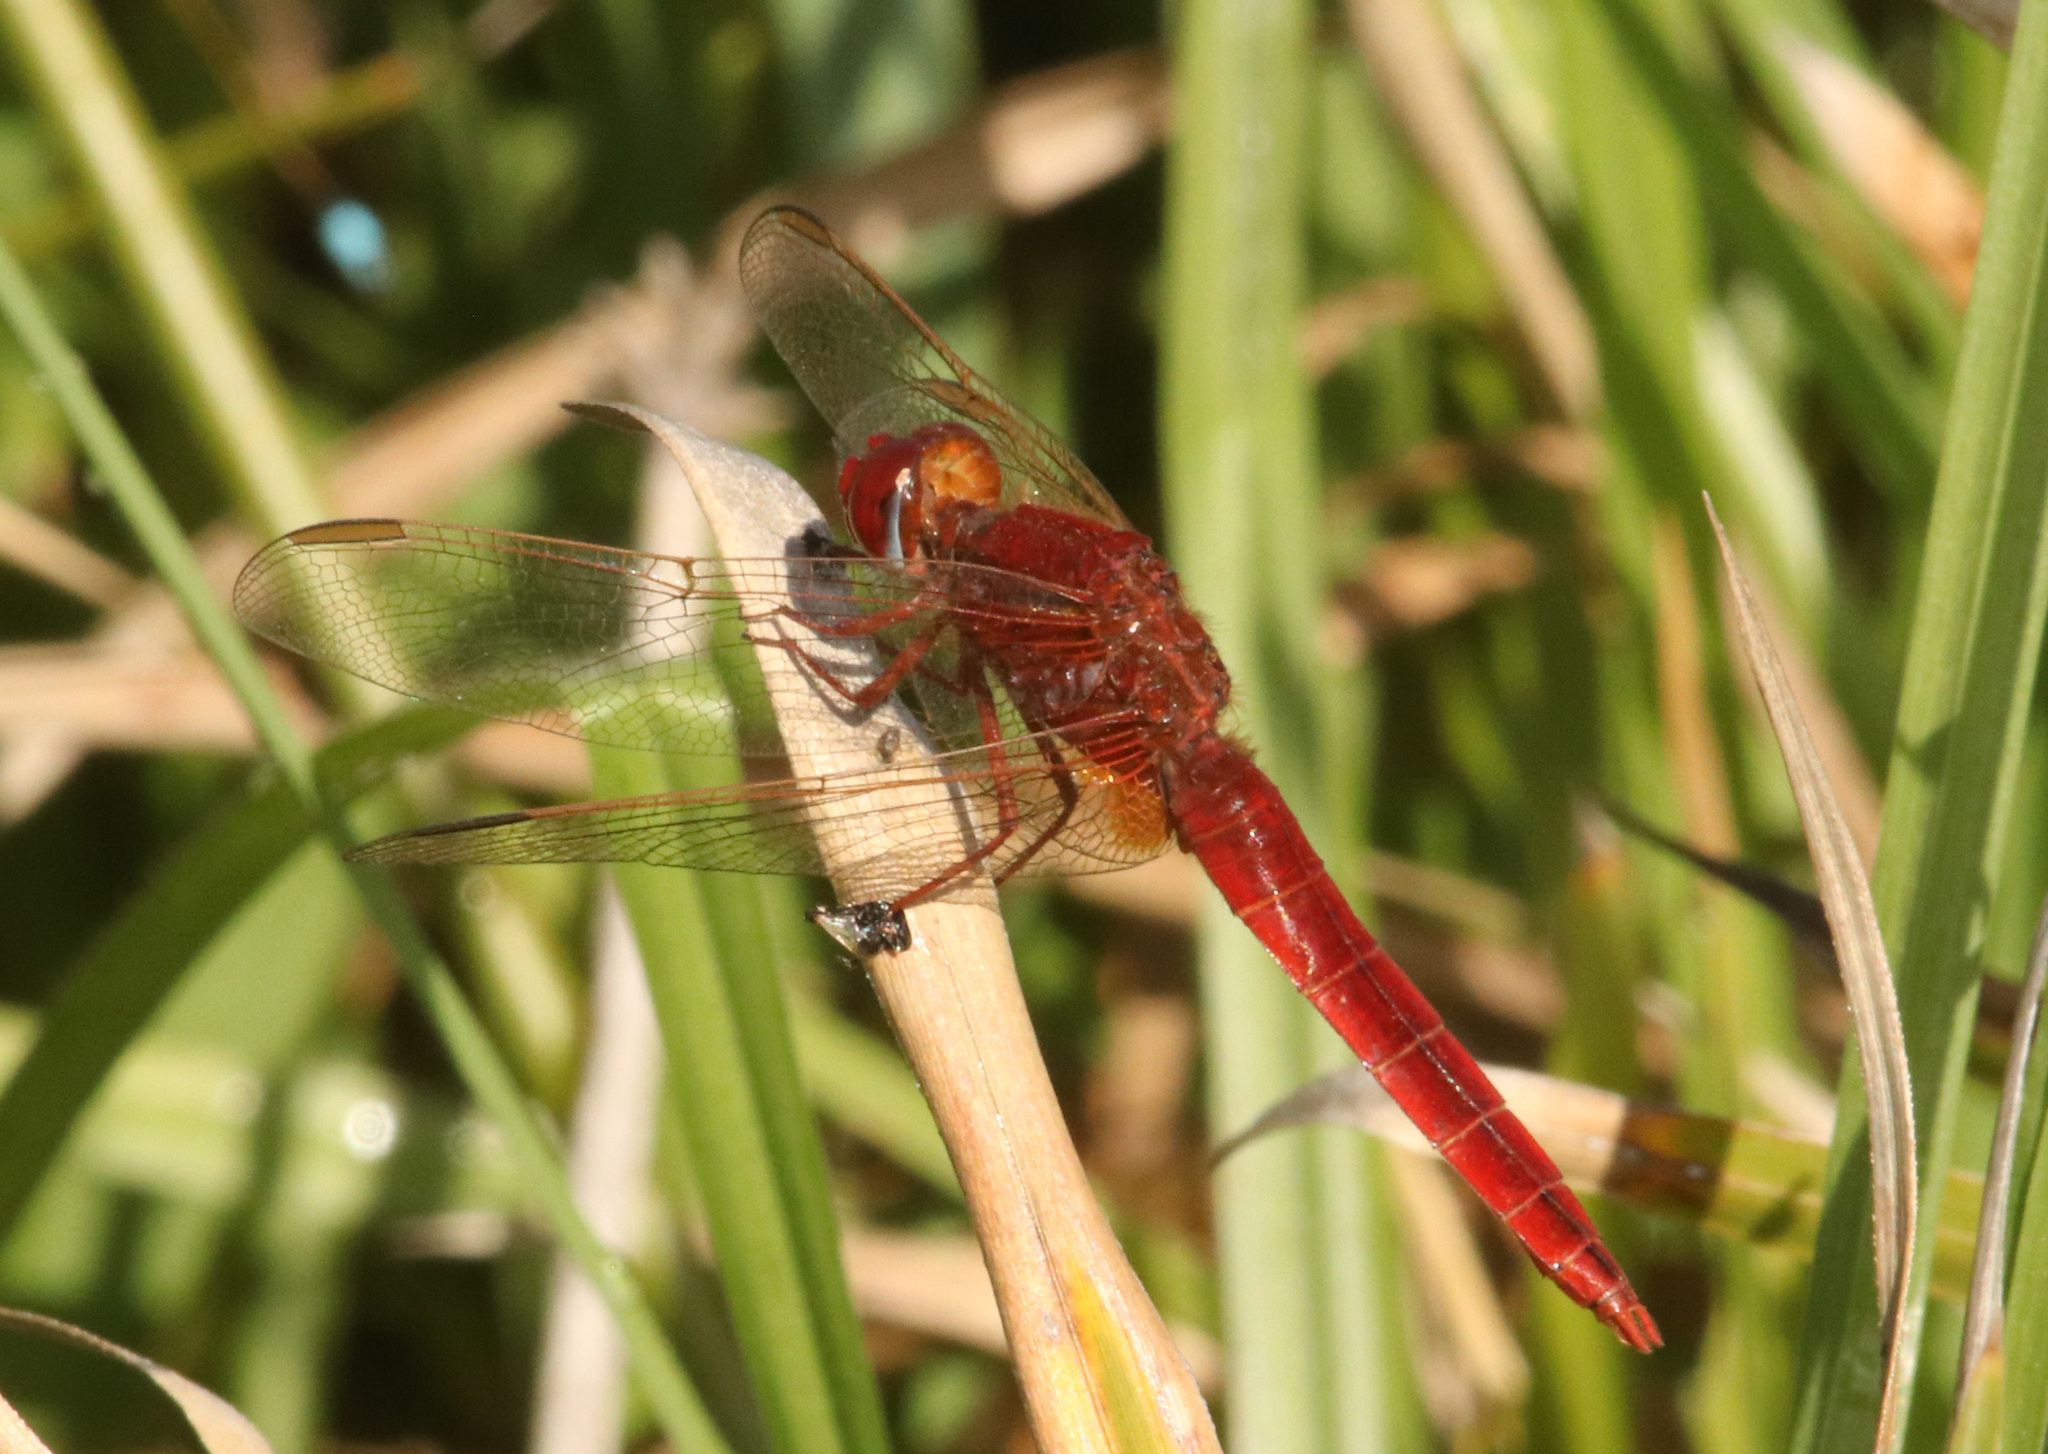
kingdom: Animalia
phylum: Arthropoda
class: Insecta
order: Odonata
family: Libellulidae
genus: Crocothemis
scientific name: Crocothemis erythraea
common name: Scarlet dragonfly
